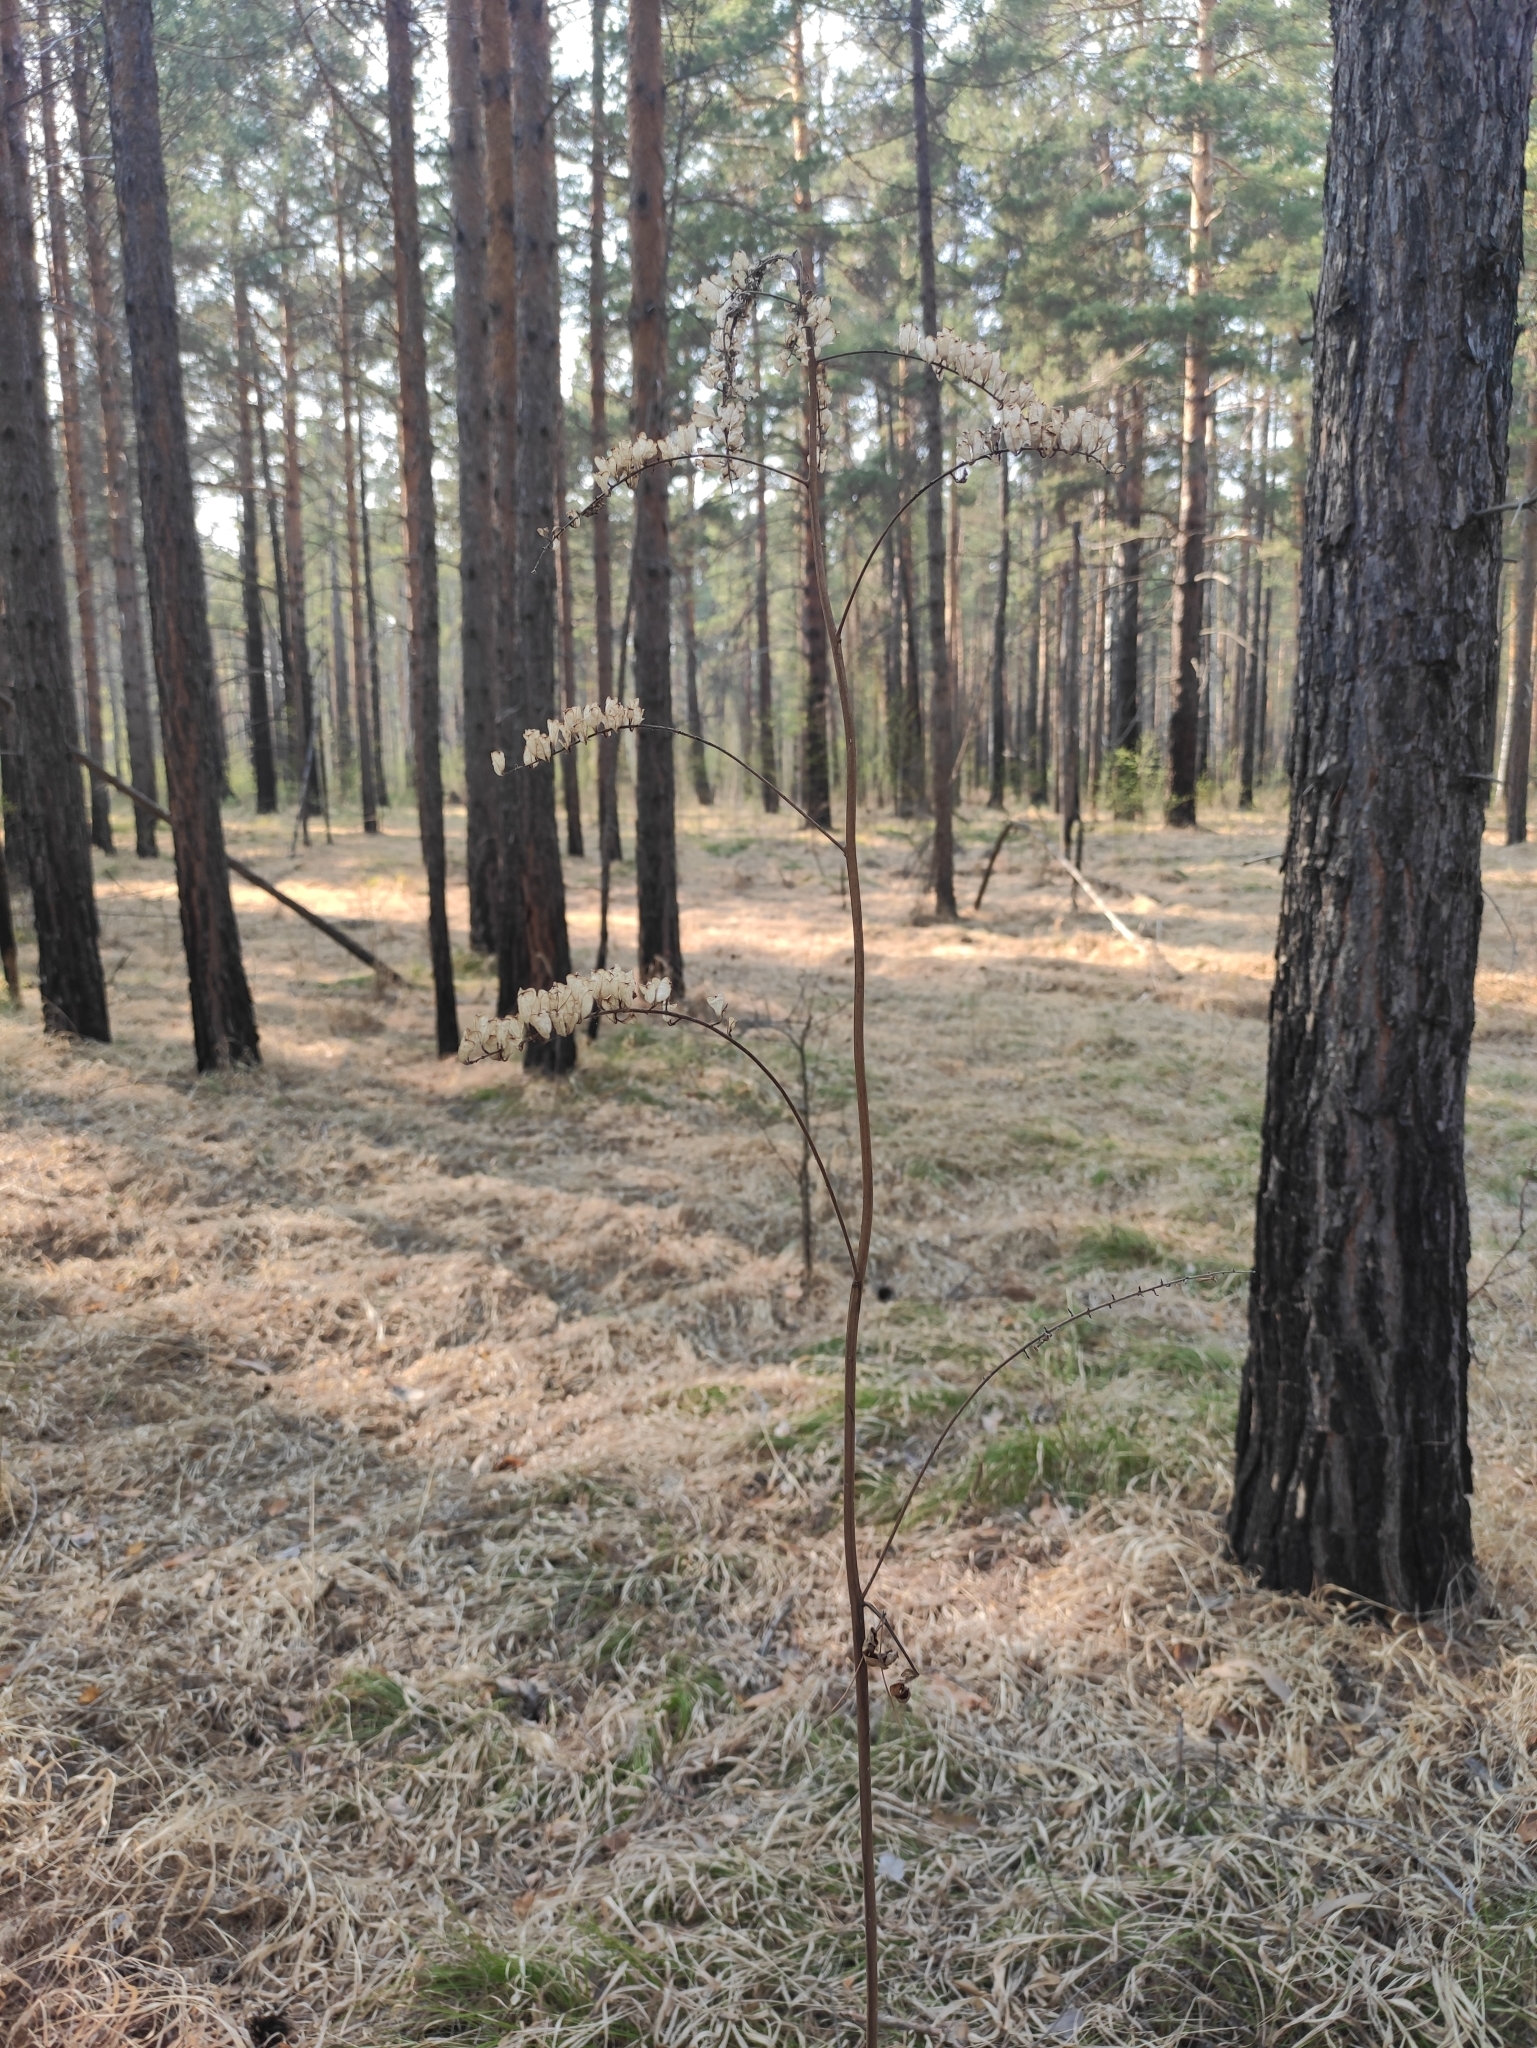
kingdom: Plantae
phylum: Tracheophyta
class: Magnoliopsida
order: Ranunculales
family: Ranunculaceae
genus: Actaea
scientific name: Actaea cimicifuga
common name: Chinese cimicifuga
